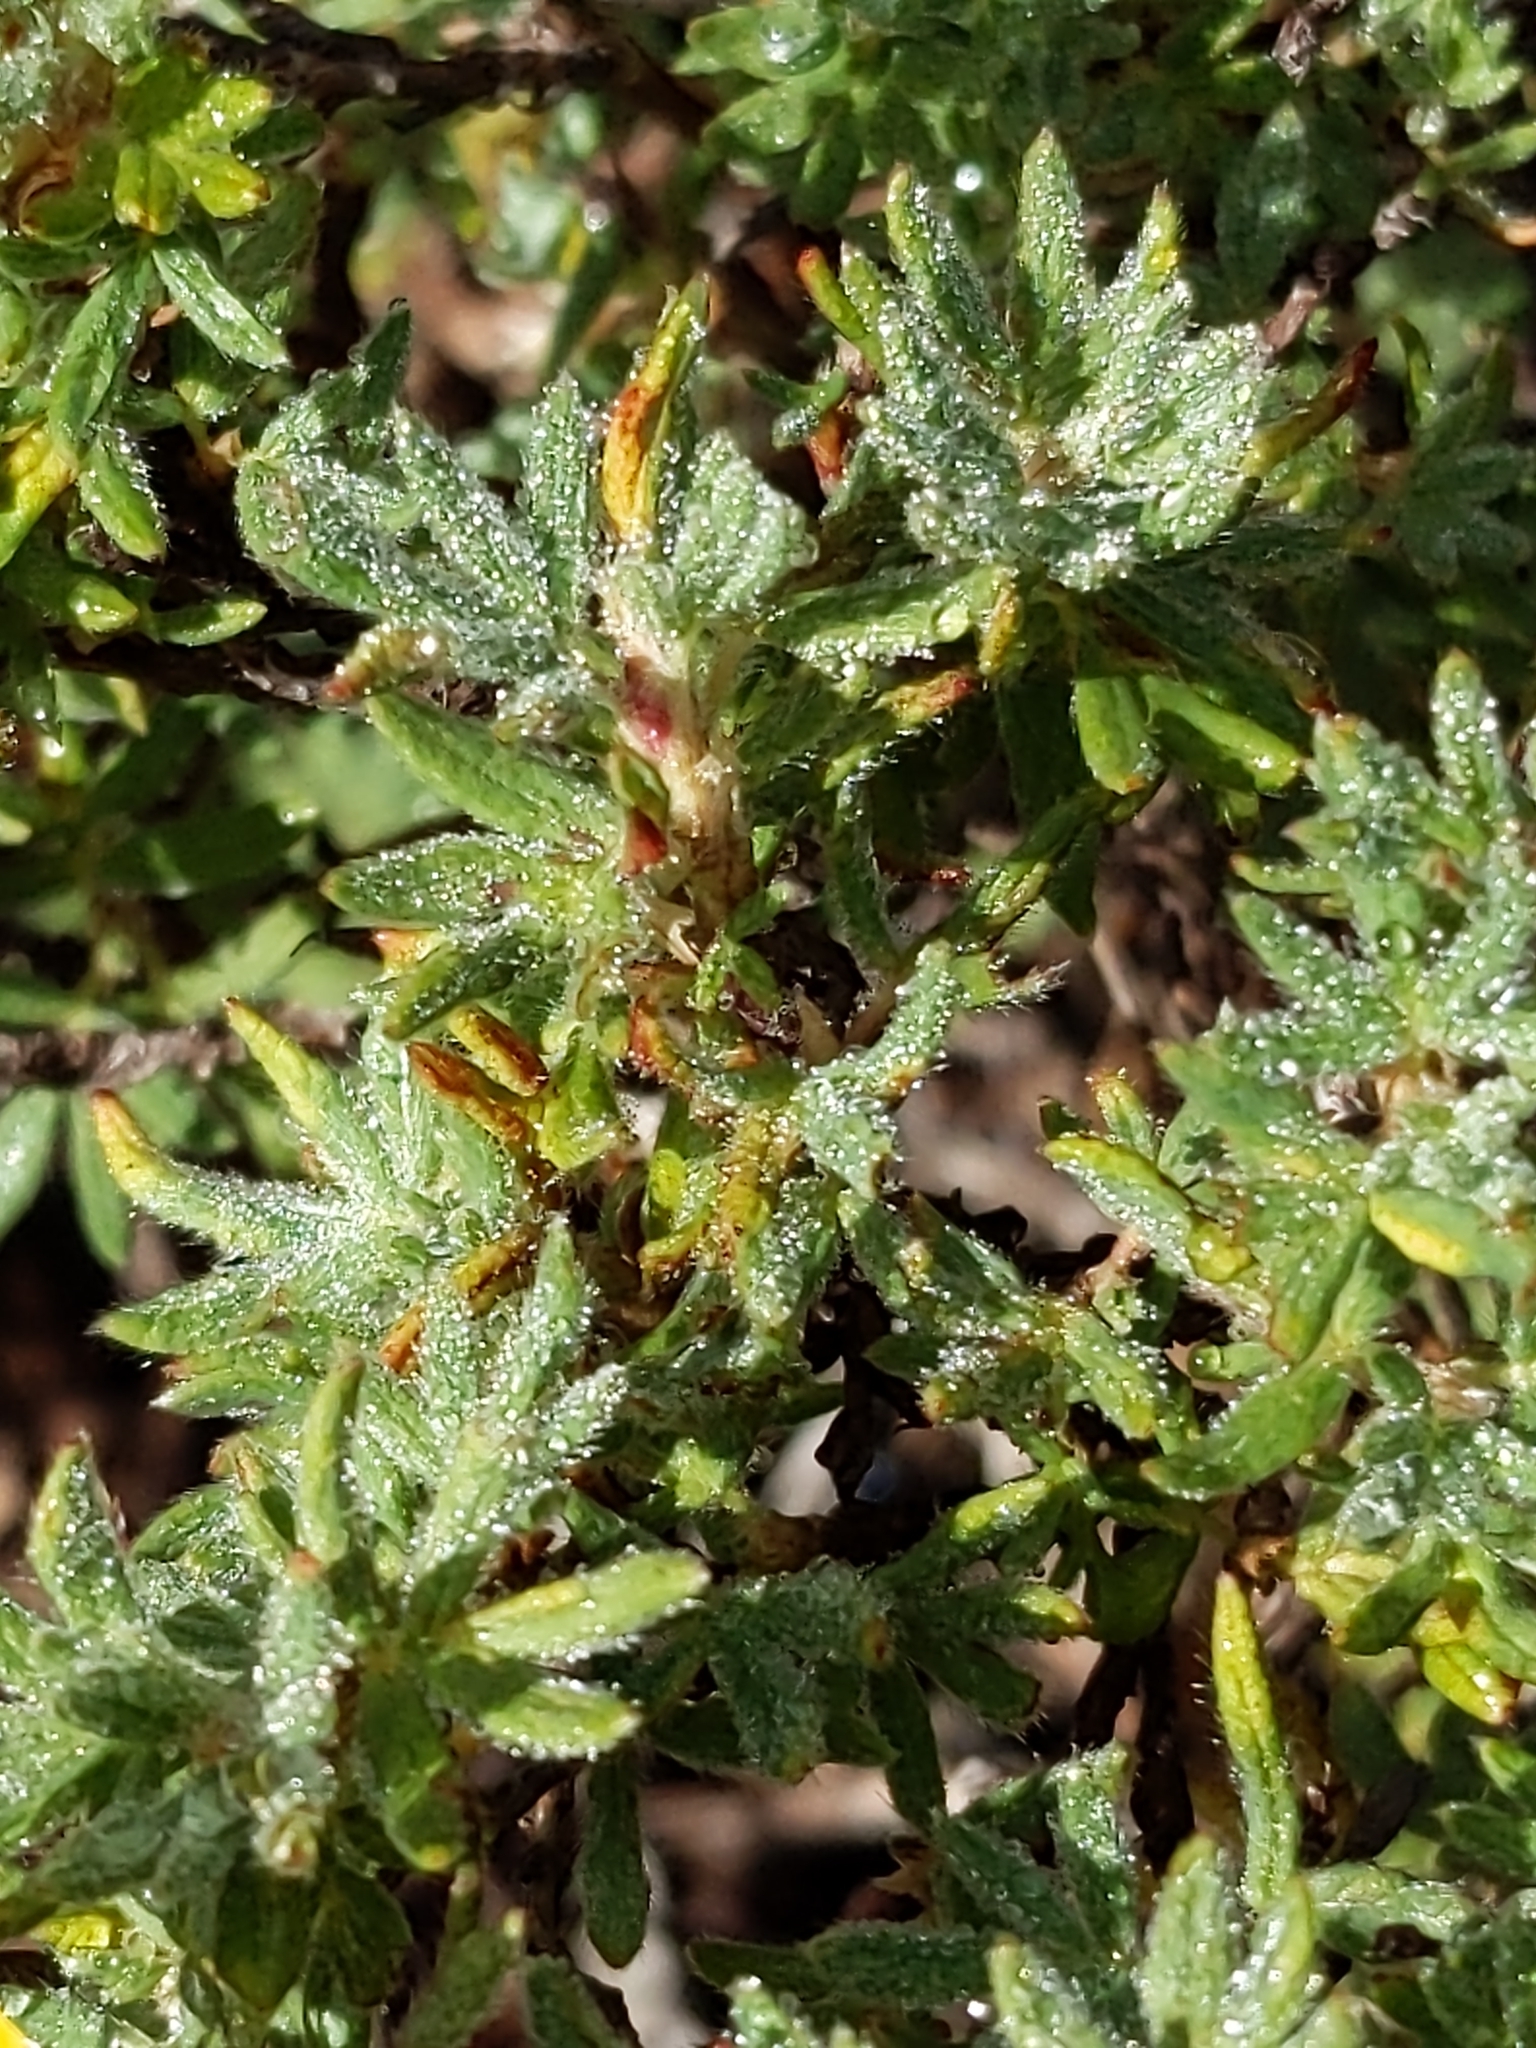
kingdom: Plantae
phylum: Tracheophyta
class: Magnoliopsida
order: Rosales
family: Rosaceae
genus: Dasiphora
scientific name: Dasiphora fruticosa
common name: Shrubby cinquefoil
